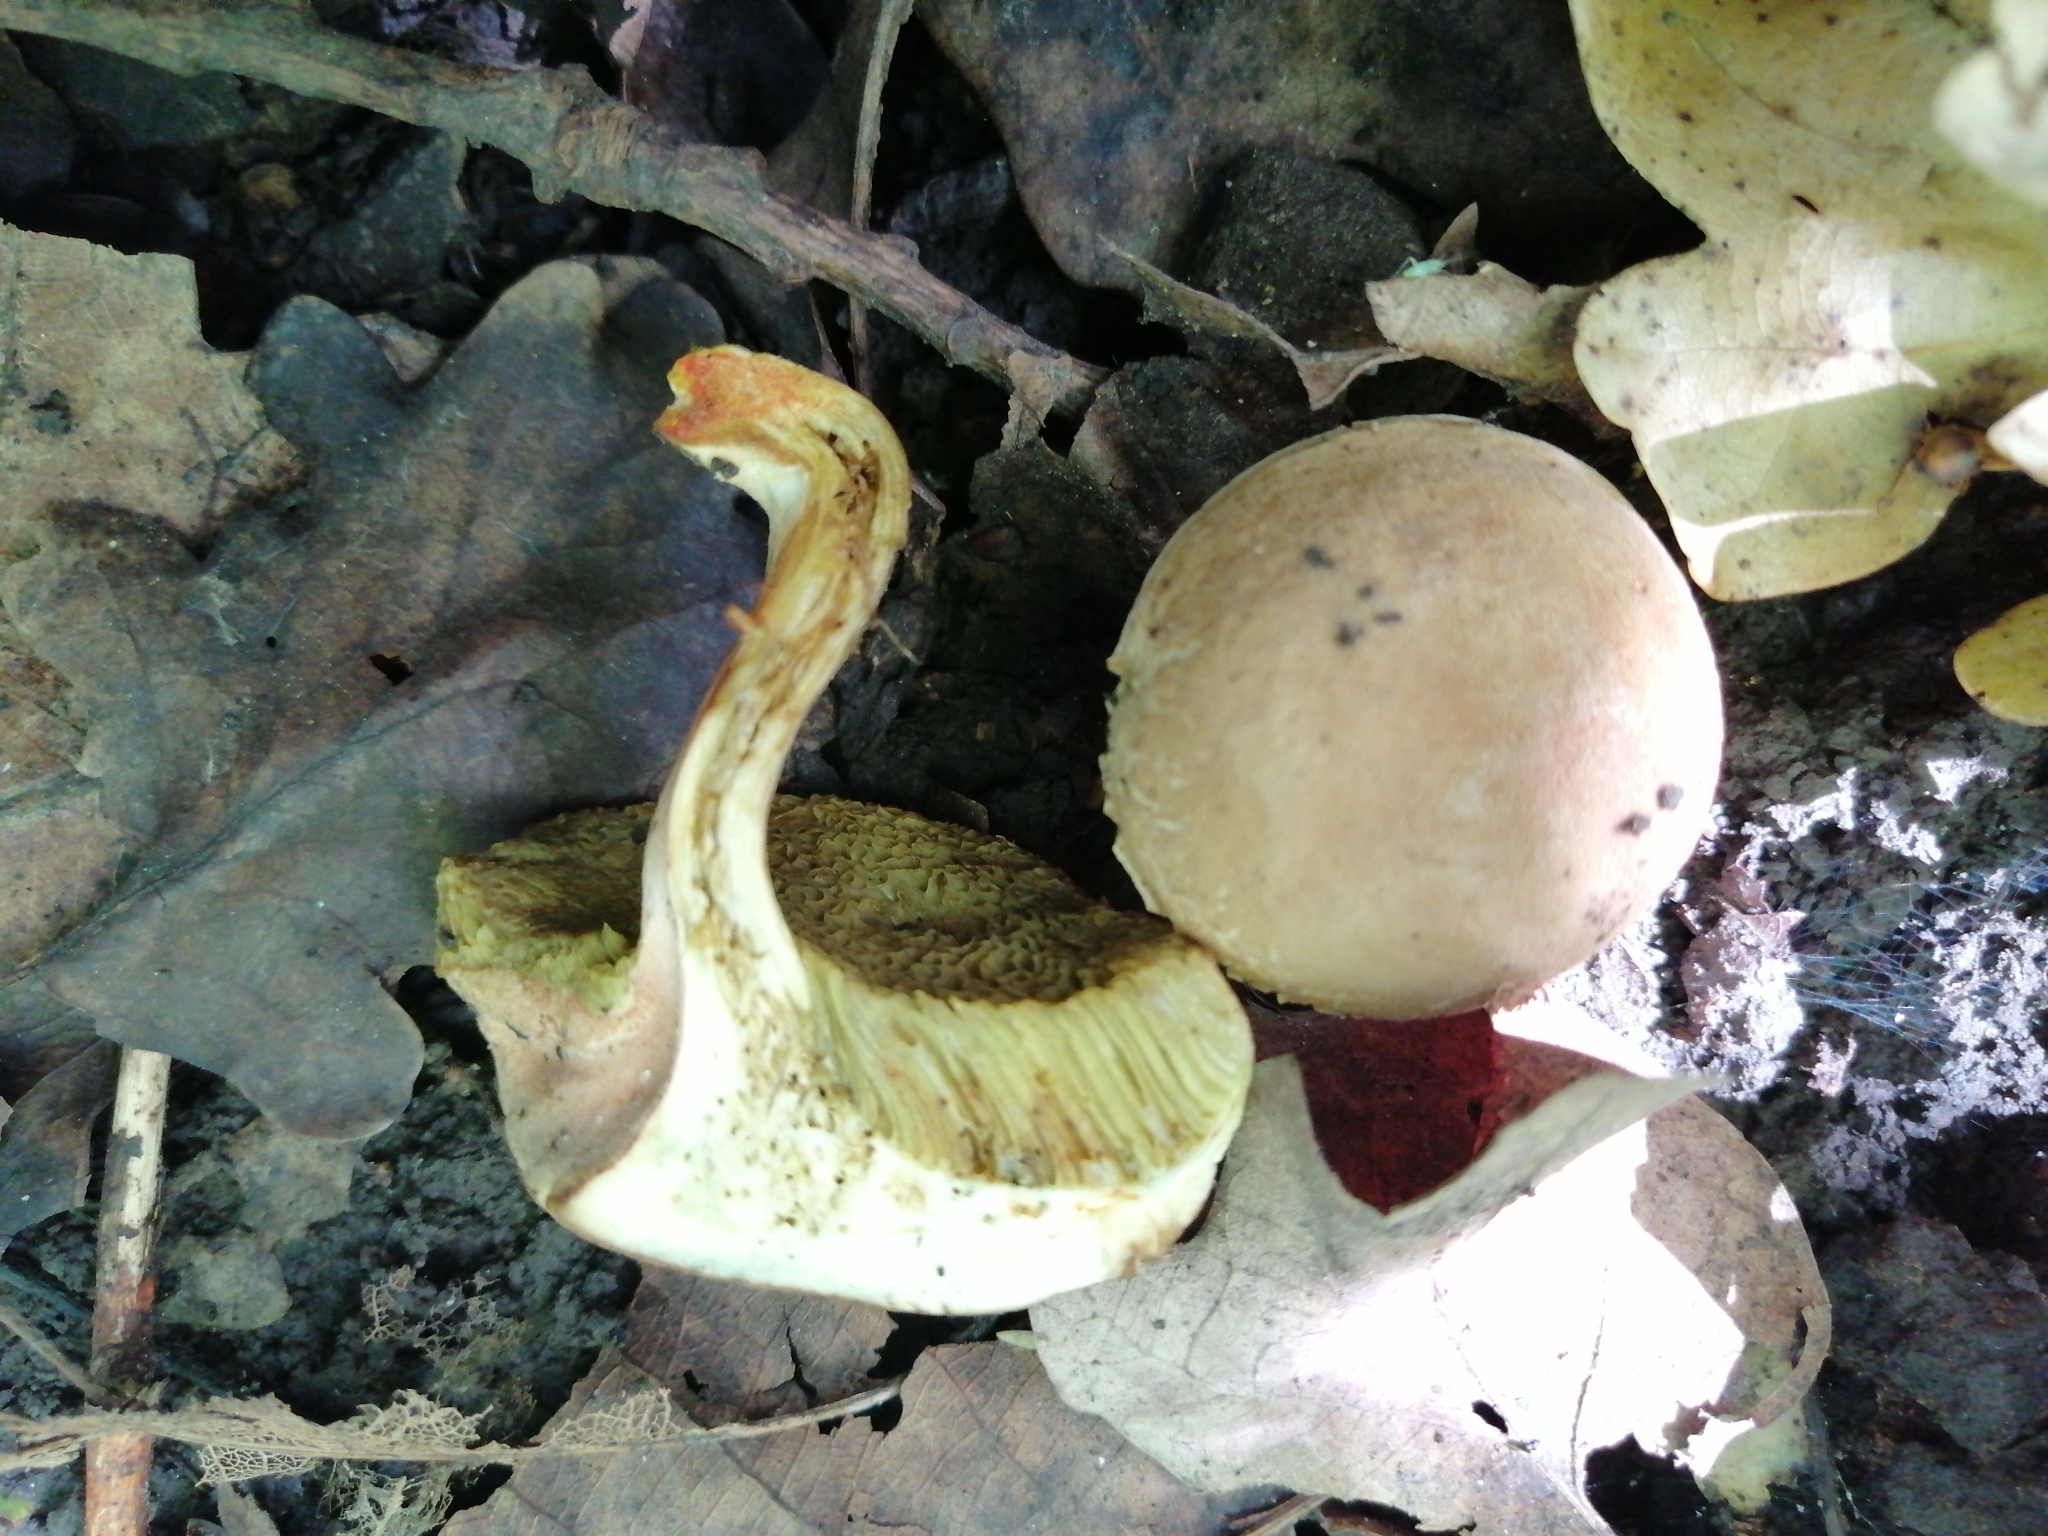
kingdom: Fungi
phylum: Basidiomycota
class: Agaricomycetes
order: Boletales
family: Boletaceae
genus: Hortiboletus
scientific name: Hortiboletus engelii
